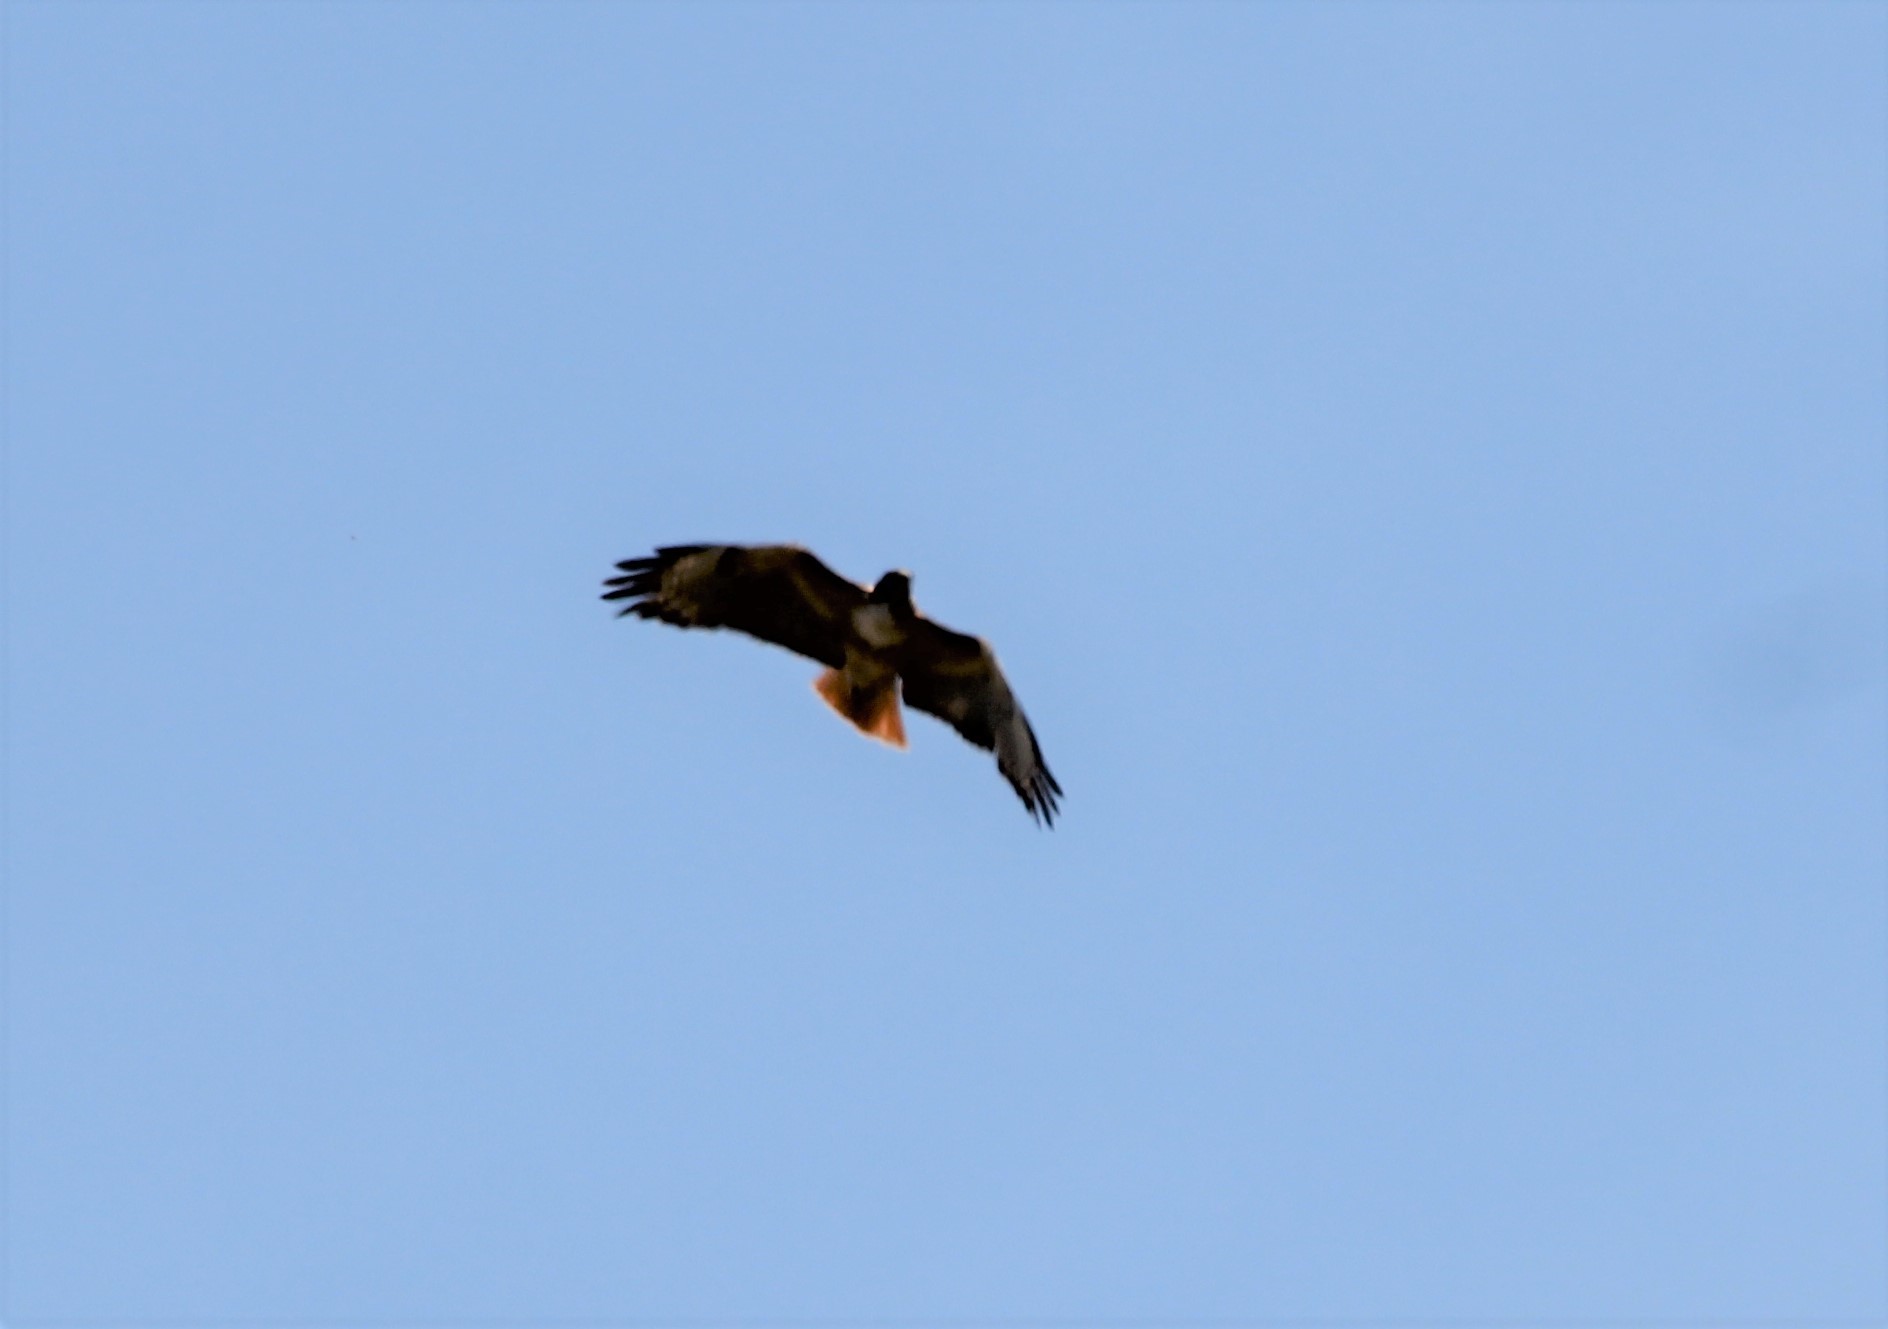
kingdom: Animalia
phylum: Chordata
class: Aves
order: Accipitriformes
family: Accipitridae
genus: Buteo
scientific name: Buteo jamaicensis
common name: Red-tailed hawk
